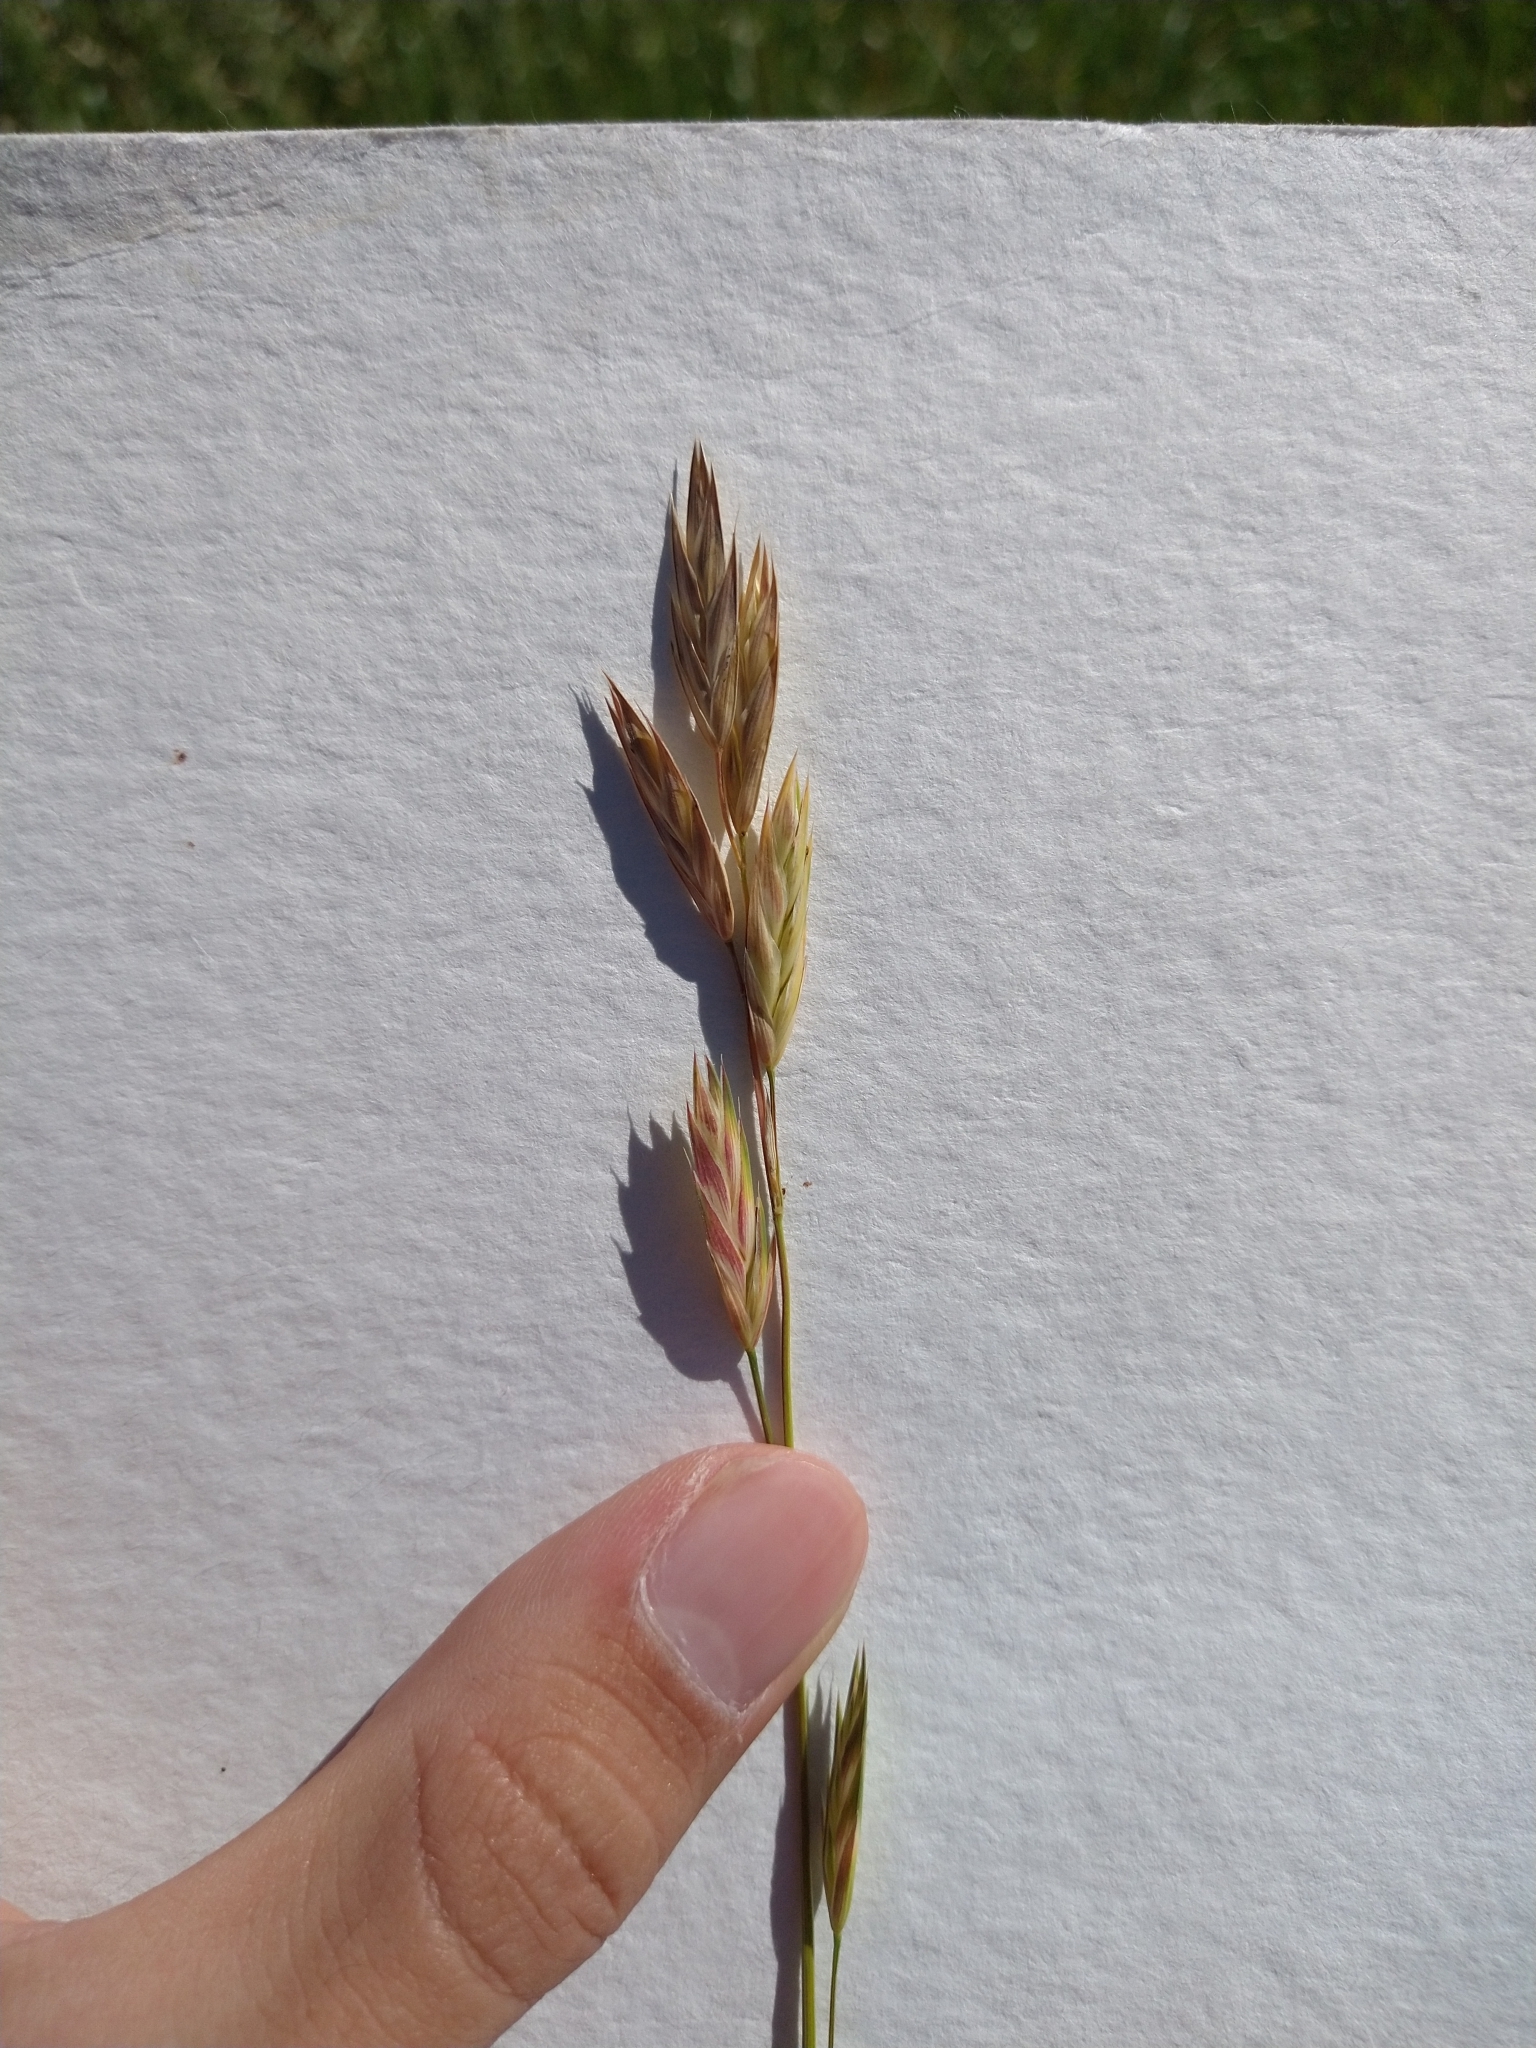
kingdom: Plantae
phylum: Tracheophyta
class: Liliopsida
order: Poales
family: Poaceae
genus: Bromus
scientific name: Bromus catharticus
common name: Rescuegrass
